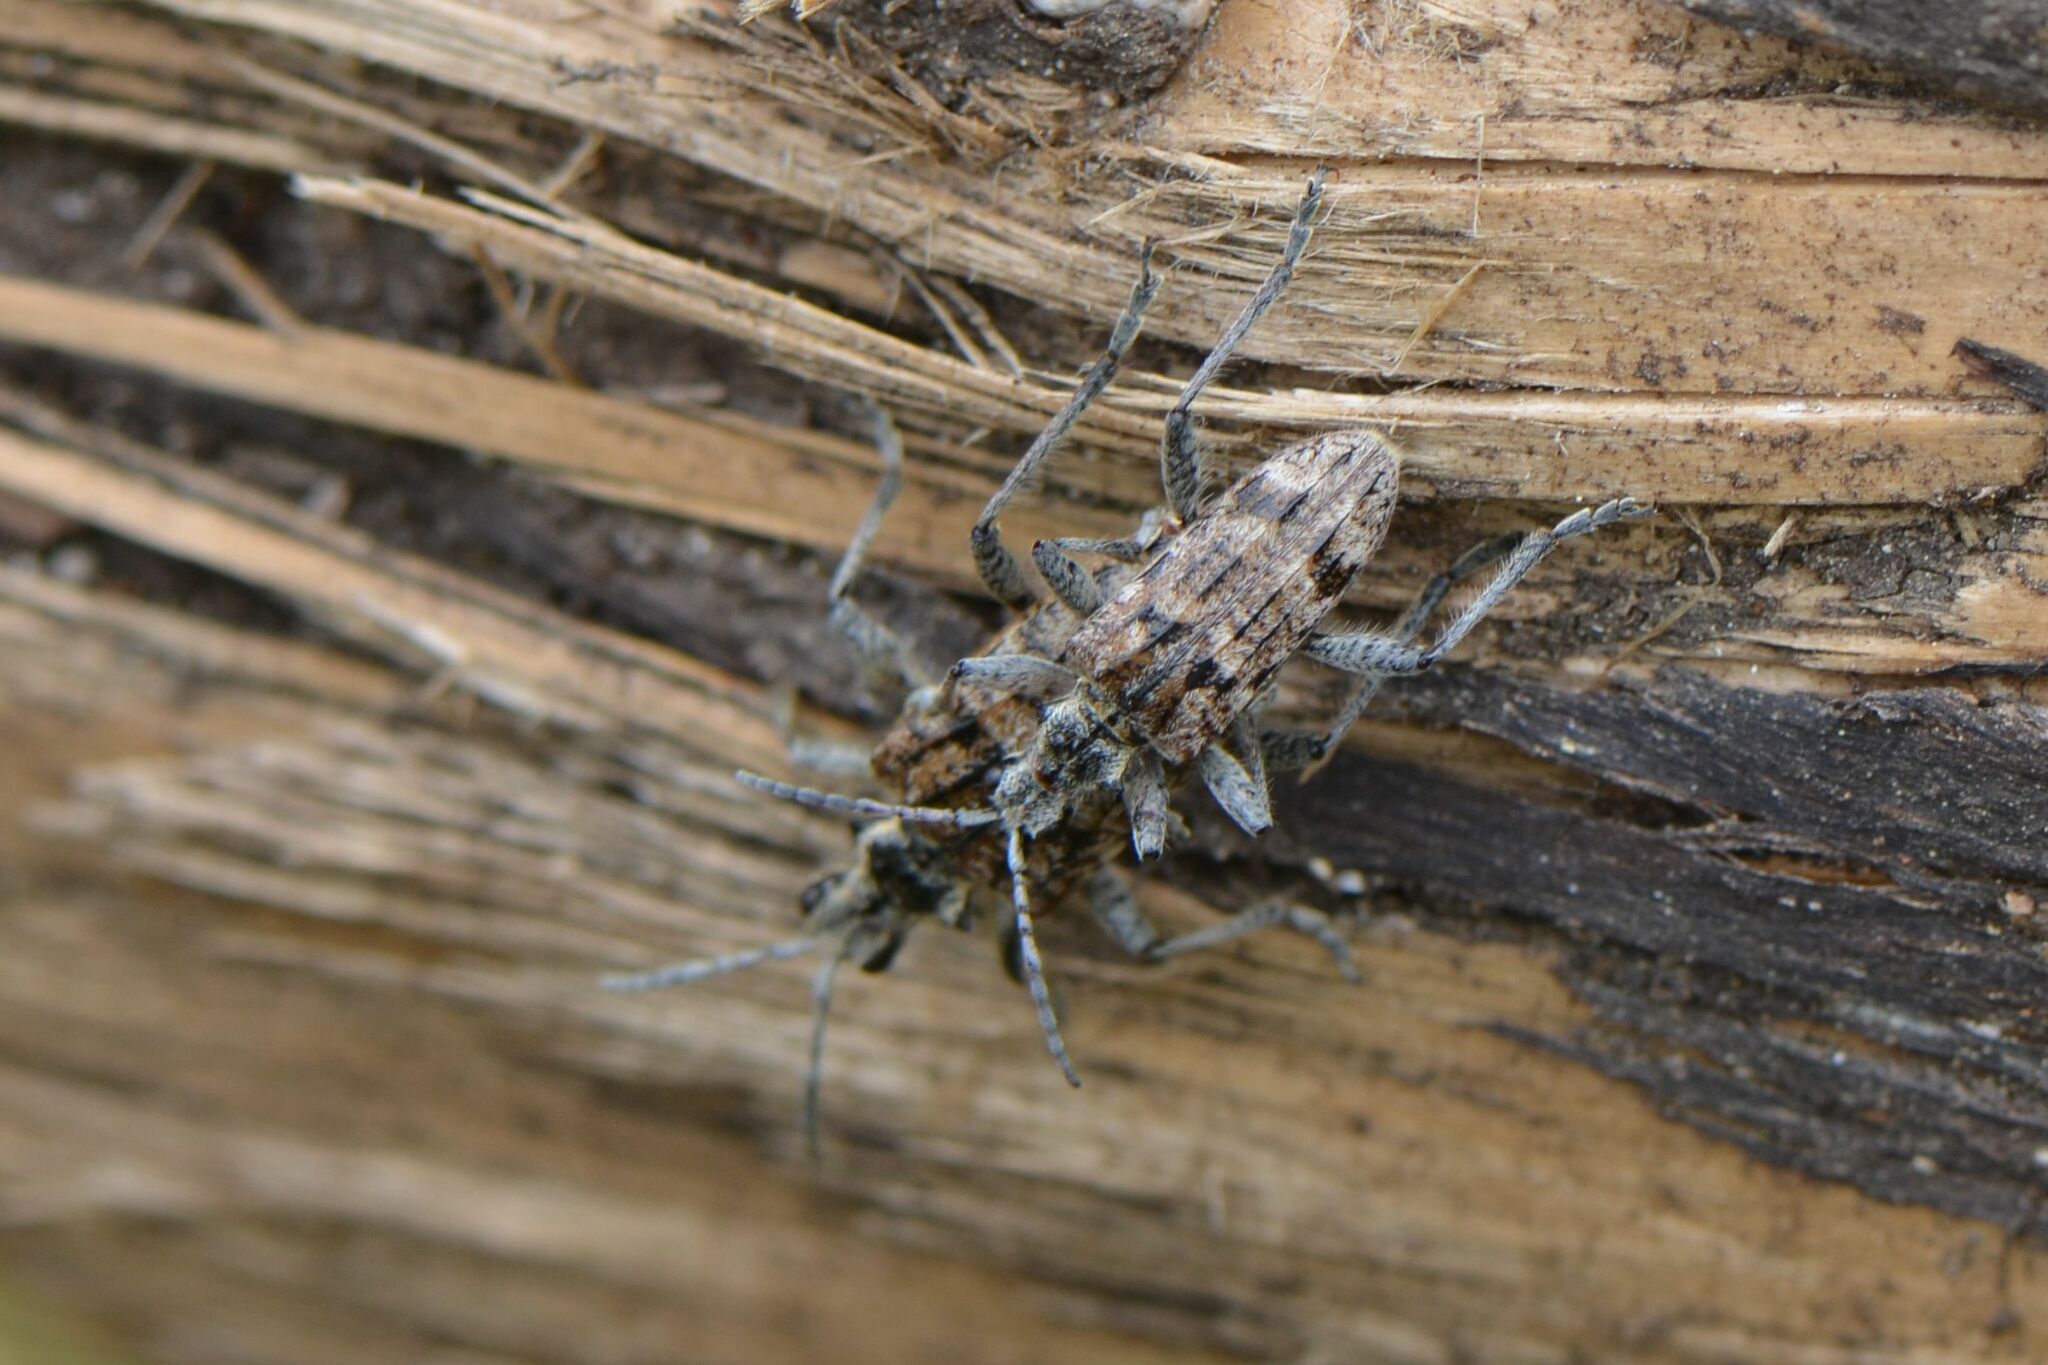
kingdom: Animalia
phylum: Arthropoda
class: Insecta
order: Coleoptera
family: Cerambycidae
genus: Rhagium
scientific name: Rhagium inquisitor
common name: Ribbed pine borer
